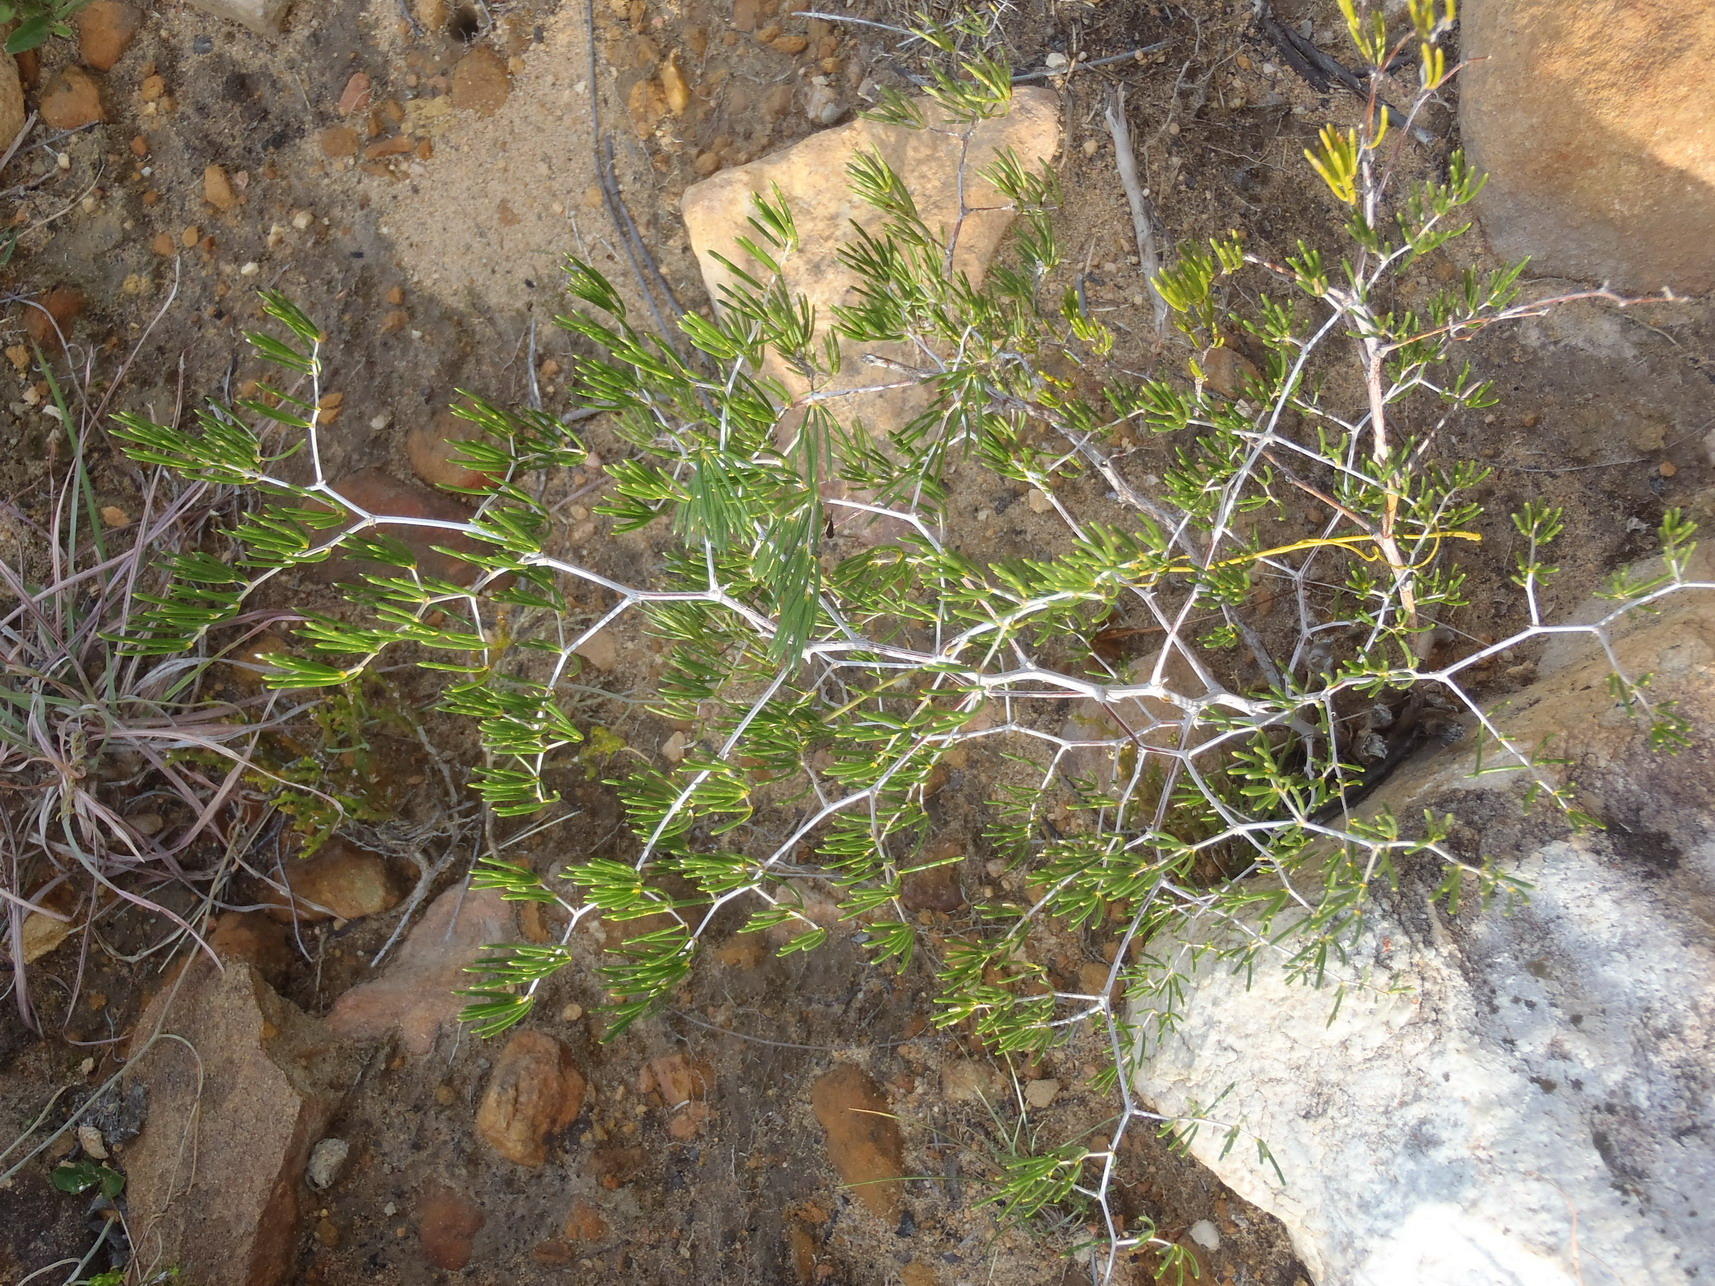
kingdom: Plantae
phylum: Tracheophyta
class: Liliopsida
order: Asparagales
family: Asparagaceae
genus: Asparagus
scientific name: Asparagus lignosus
